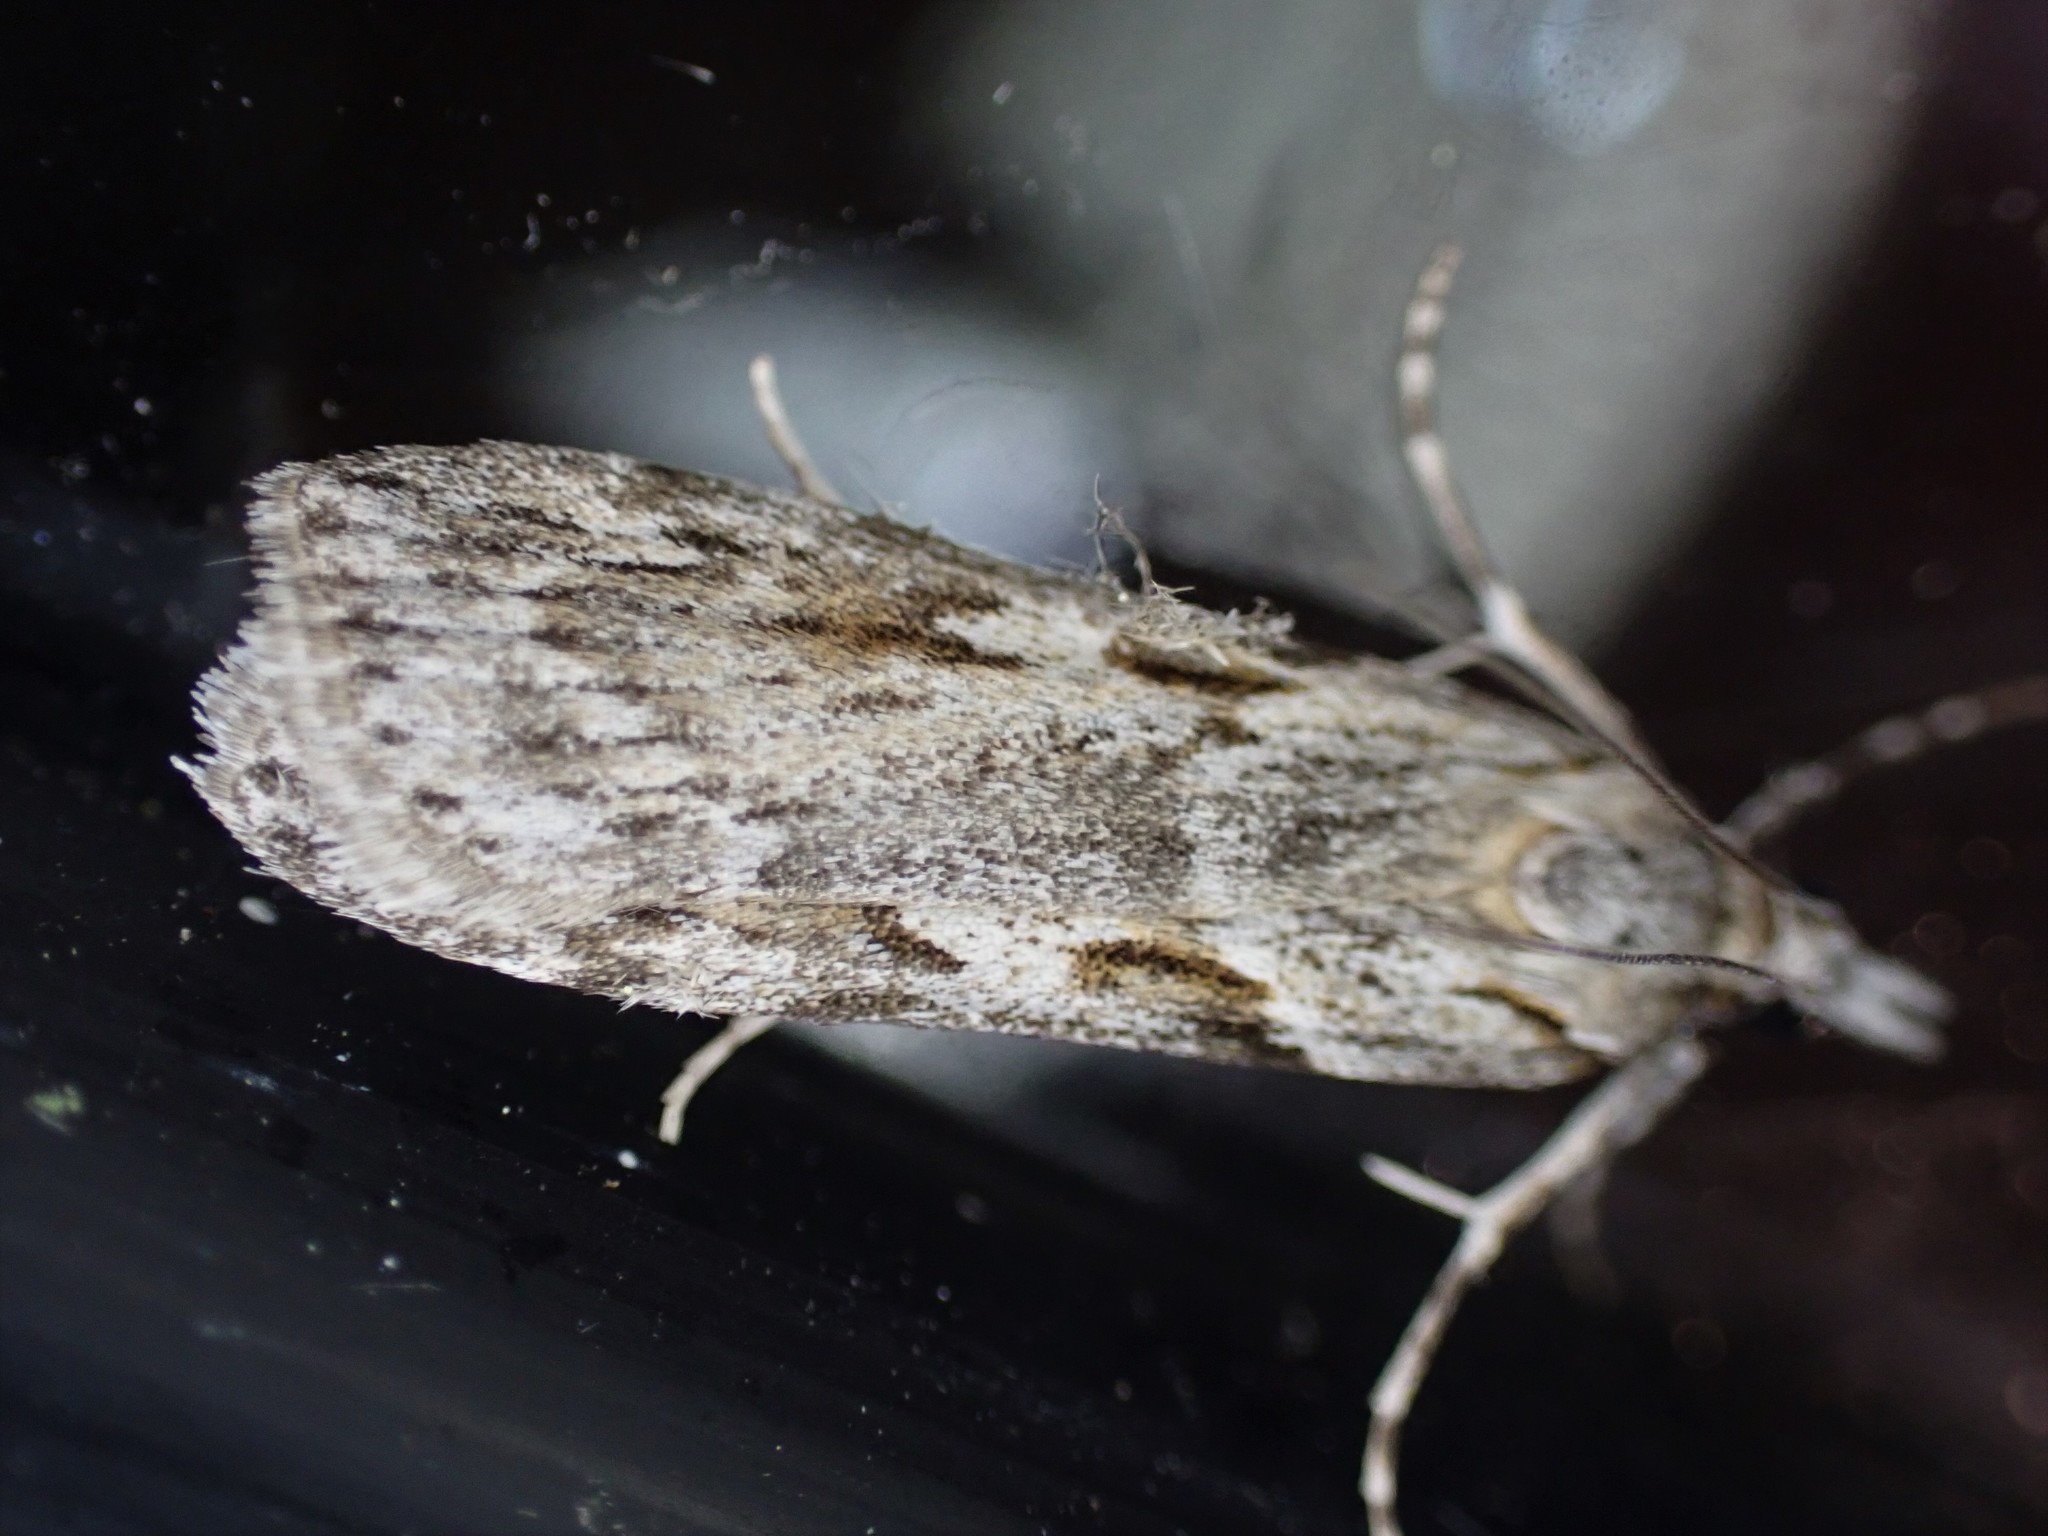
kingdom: Animalia
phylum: Arthropoda
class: Insecta
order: Lepidoptera
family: Crambidae
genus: Scoparia
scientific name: Scoparia halopis
